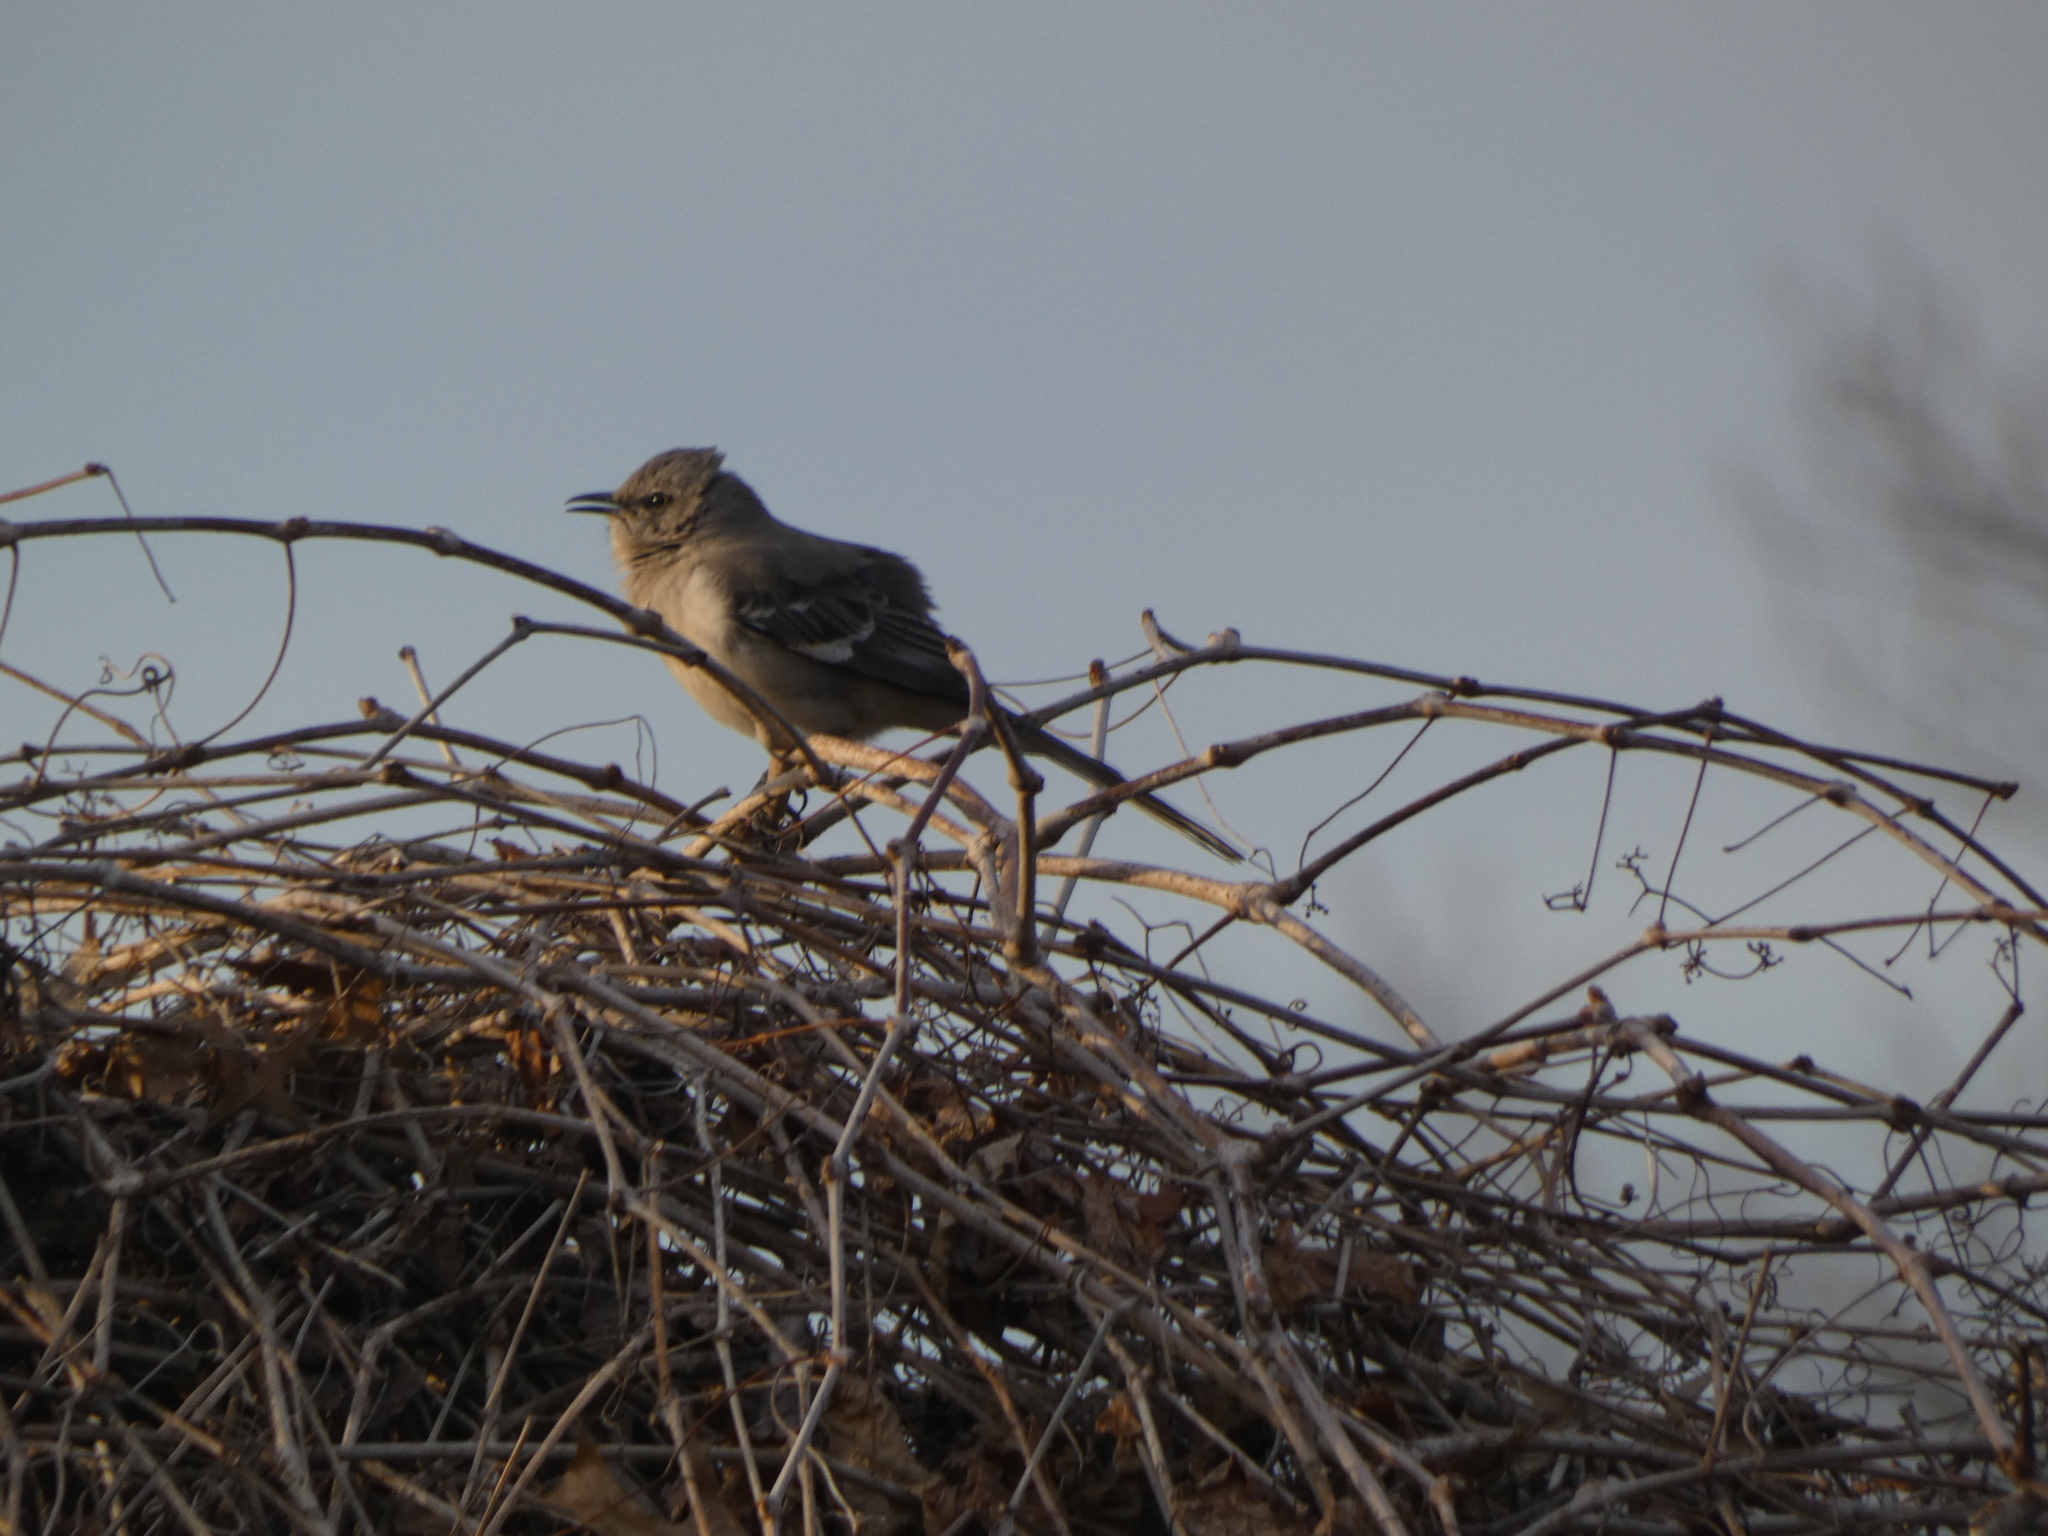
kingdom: Animalia
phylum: Chordata
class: Aves
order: Passeriformes
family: Mimidae
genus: Mimus
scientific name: Mimus polyglottos
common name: Northern mockingbird
